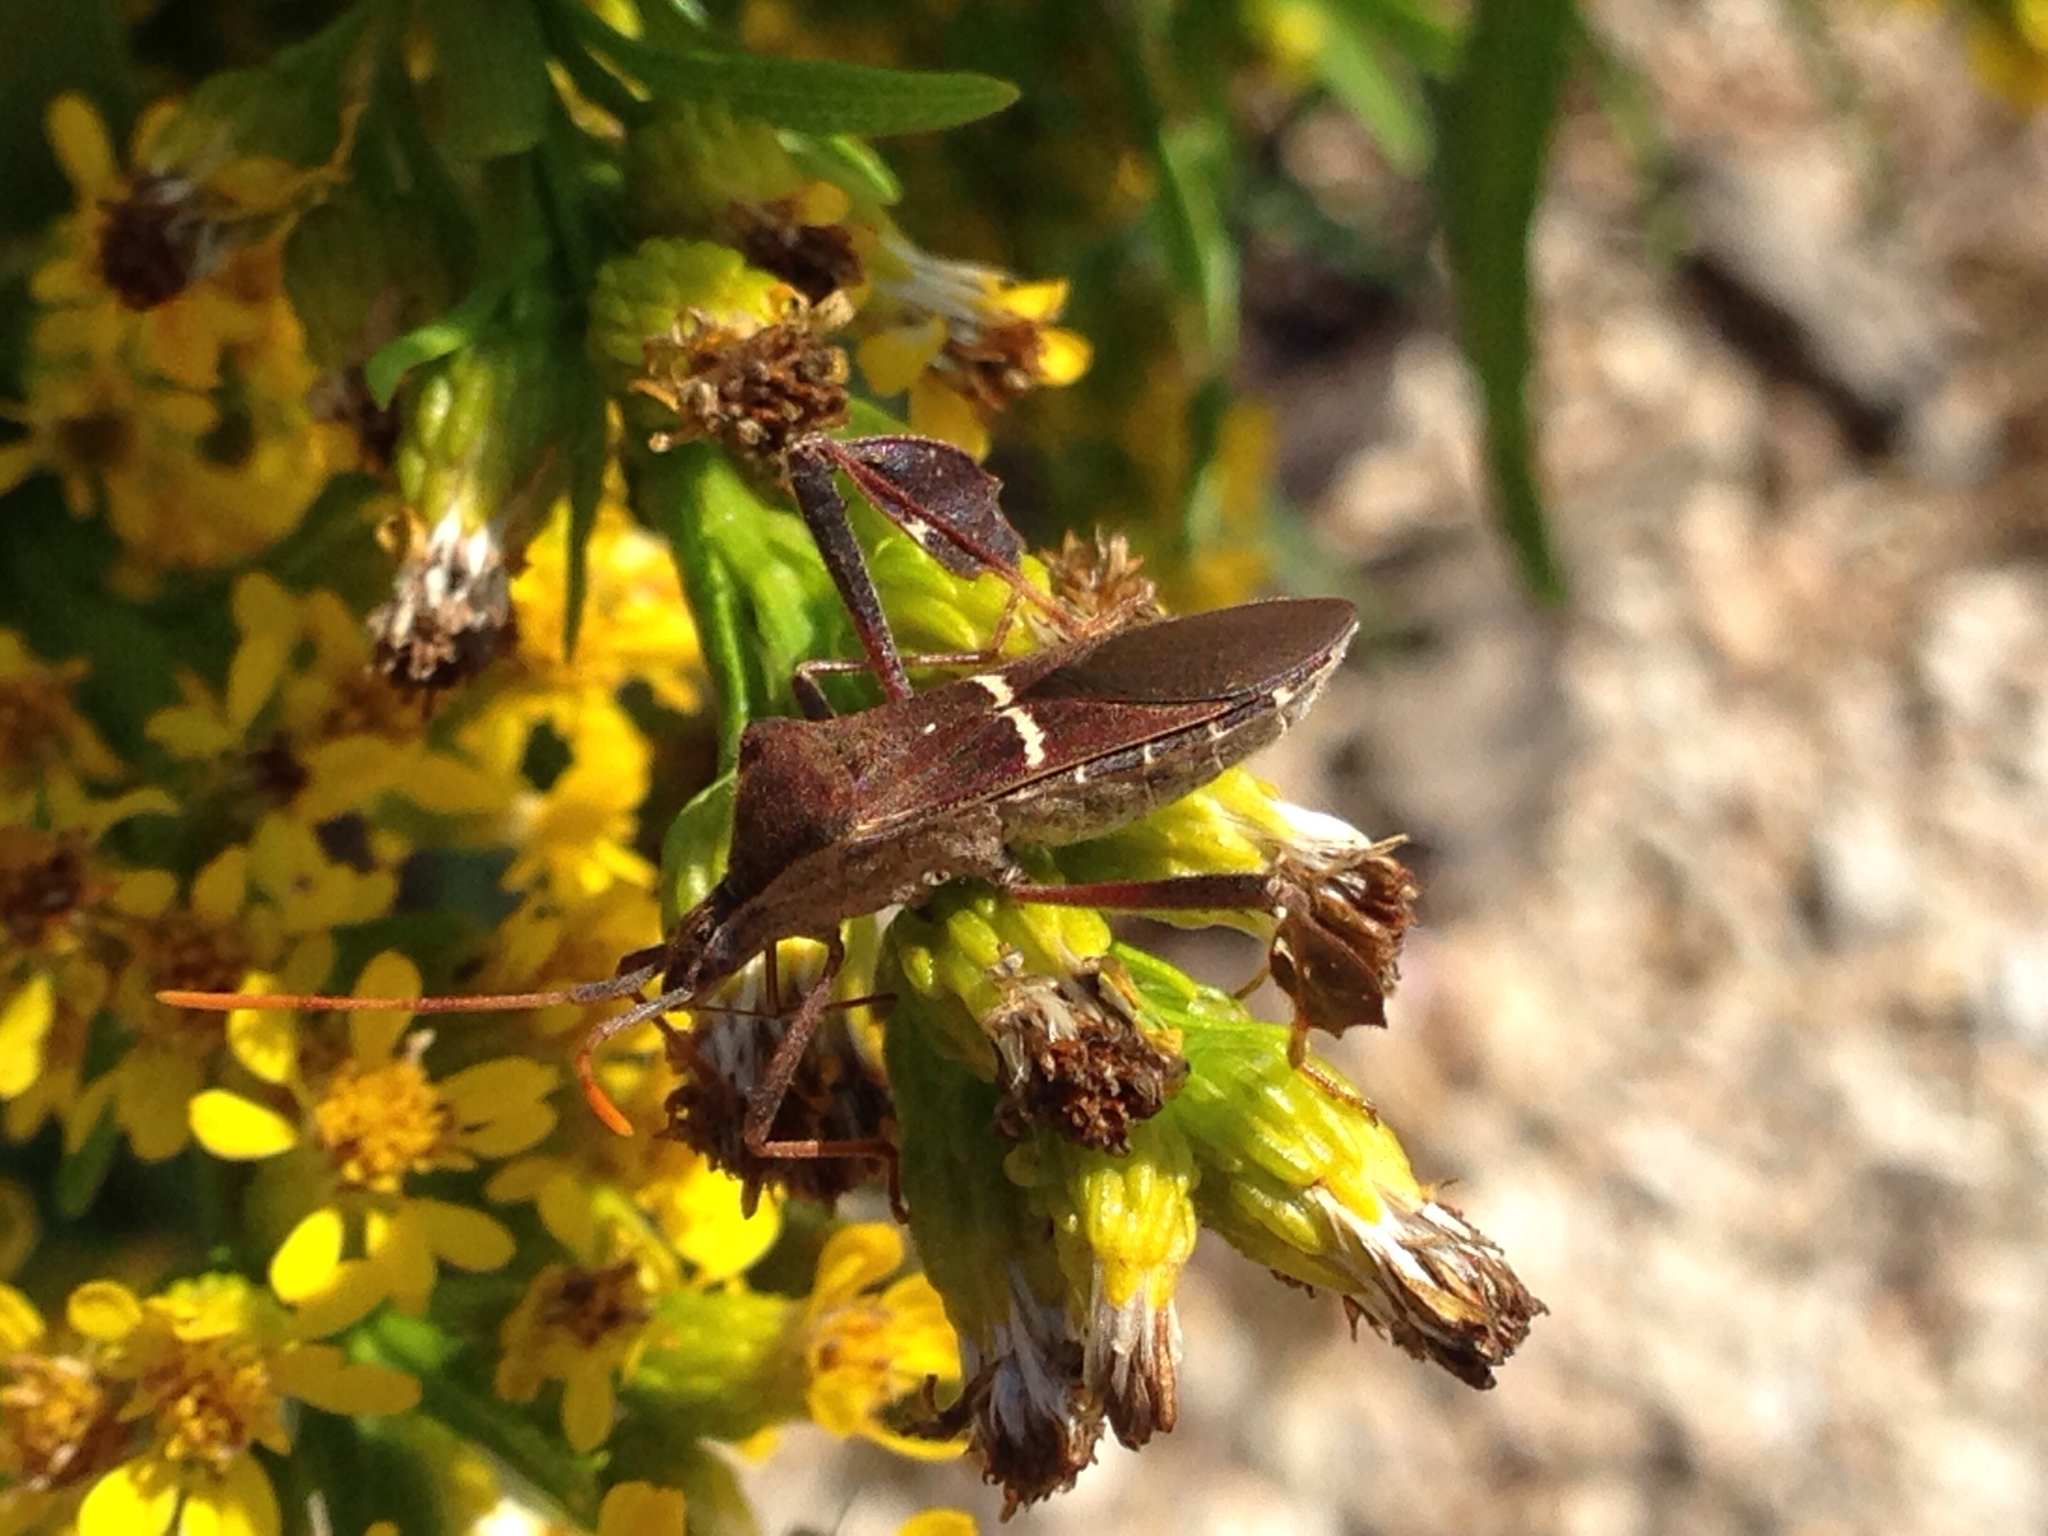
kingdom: Animalia
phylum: Arthropoda
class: Insecta
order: Hemiptera
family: Coreidae
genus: Leptoglossus
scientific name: Leptoglossus phyllopus
